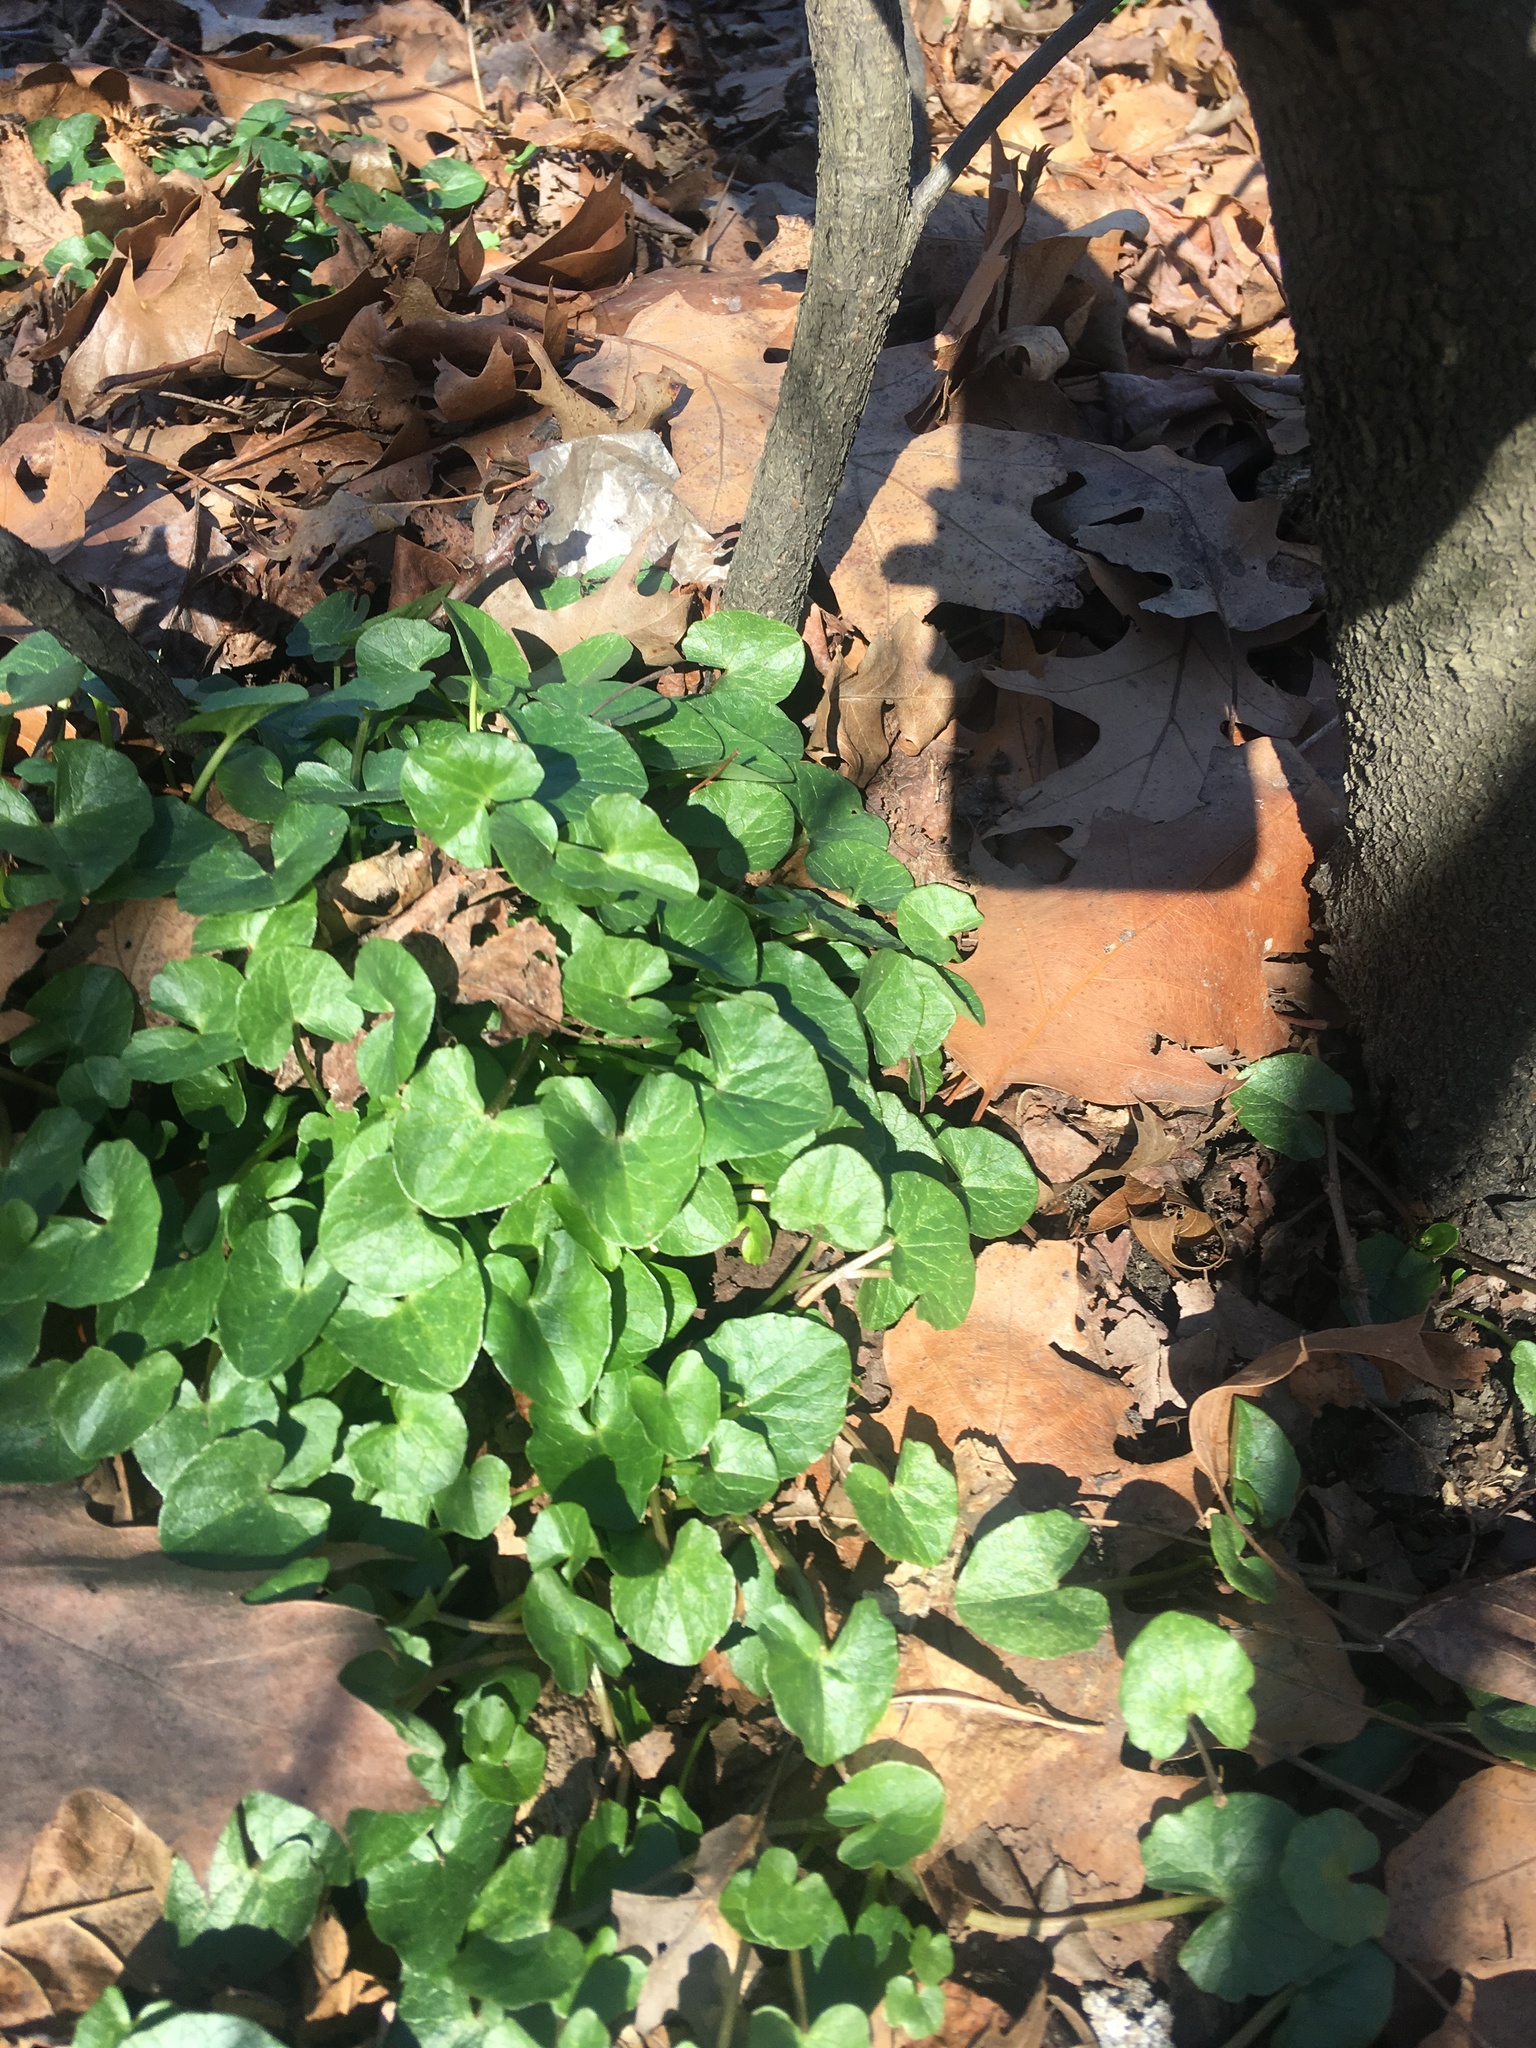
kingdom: Plantae
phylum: Tracheophyta
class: Magnoliopsida
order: Ranunculales
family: Ranunculaceae
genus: Ficaria
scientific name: Ficaria verna
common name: Lesser celandine
